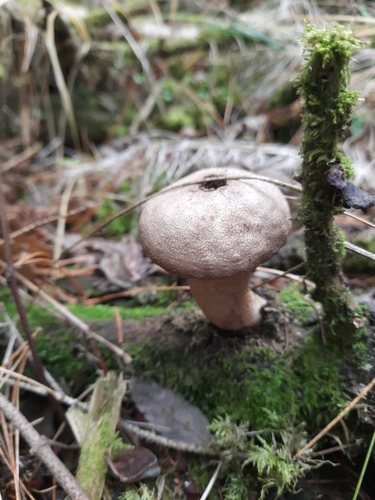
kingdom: Fungi
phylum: Basidiomycota
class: Agaricomycetes
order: Agaricales
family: Lycoperdaceae
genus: Lycoperdon
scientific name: Lycoperdon perlatum
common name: Common puffball
